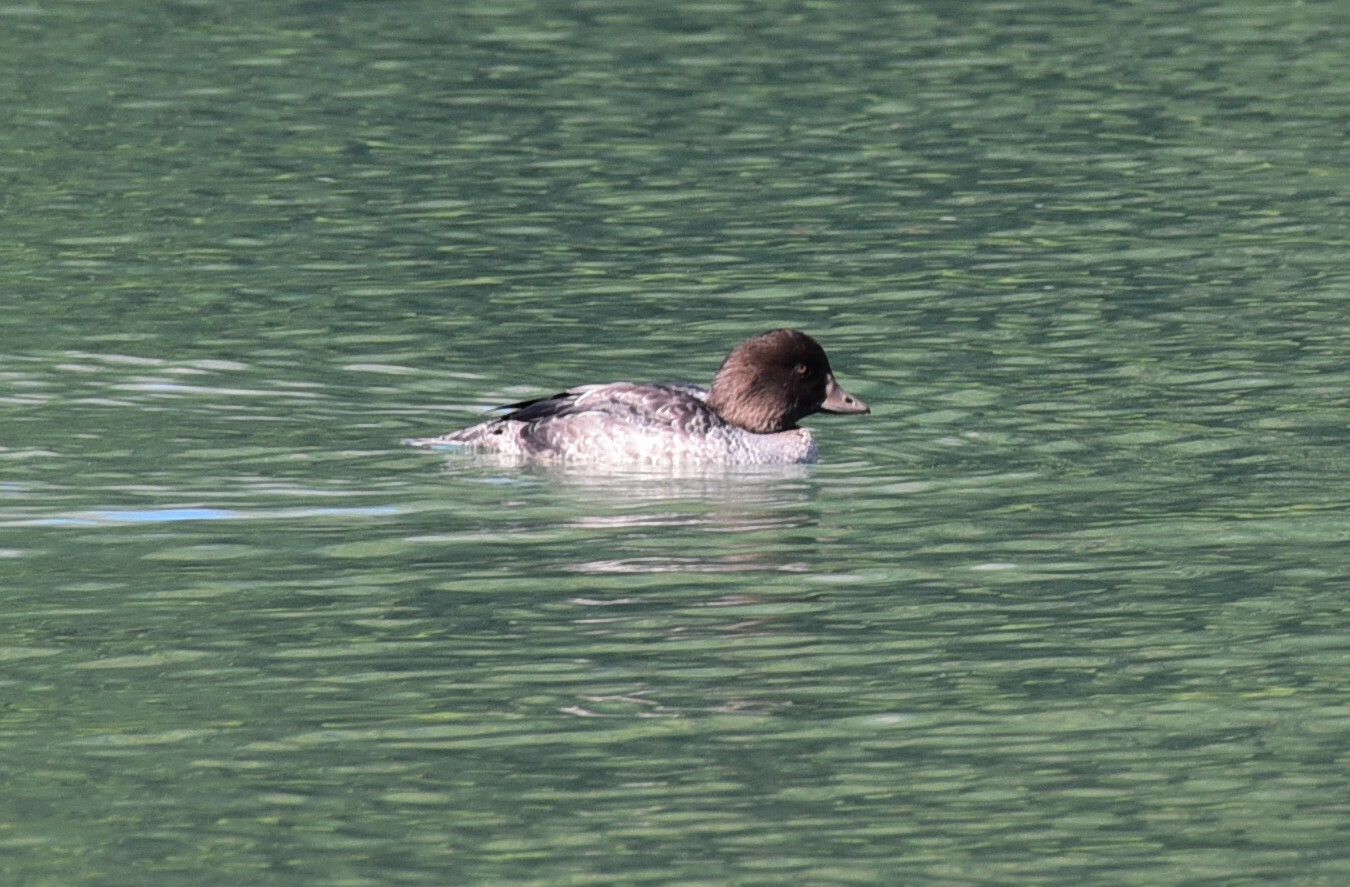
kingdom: Animalia
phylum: Chordata
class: Aves
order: Anseriformes
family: Anatidae
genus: Bucephala
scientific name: Bucephala islandica
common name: Barrow's goldeneye
